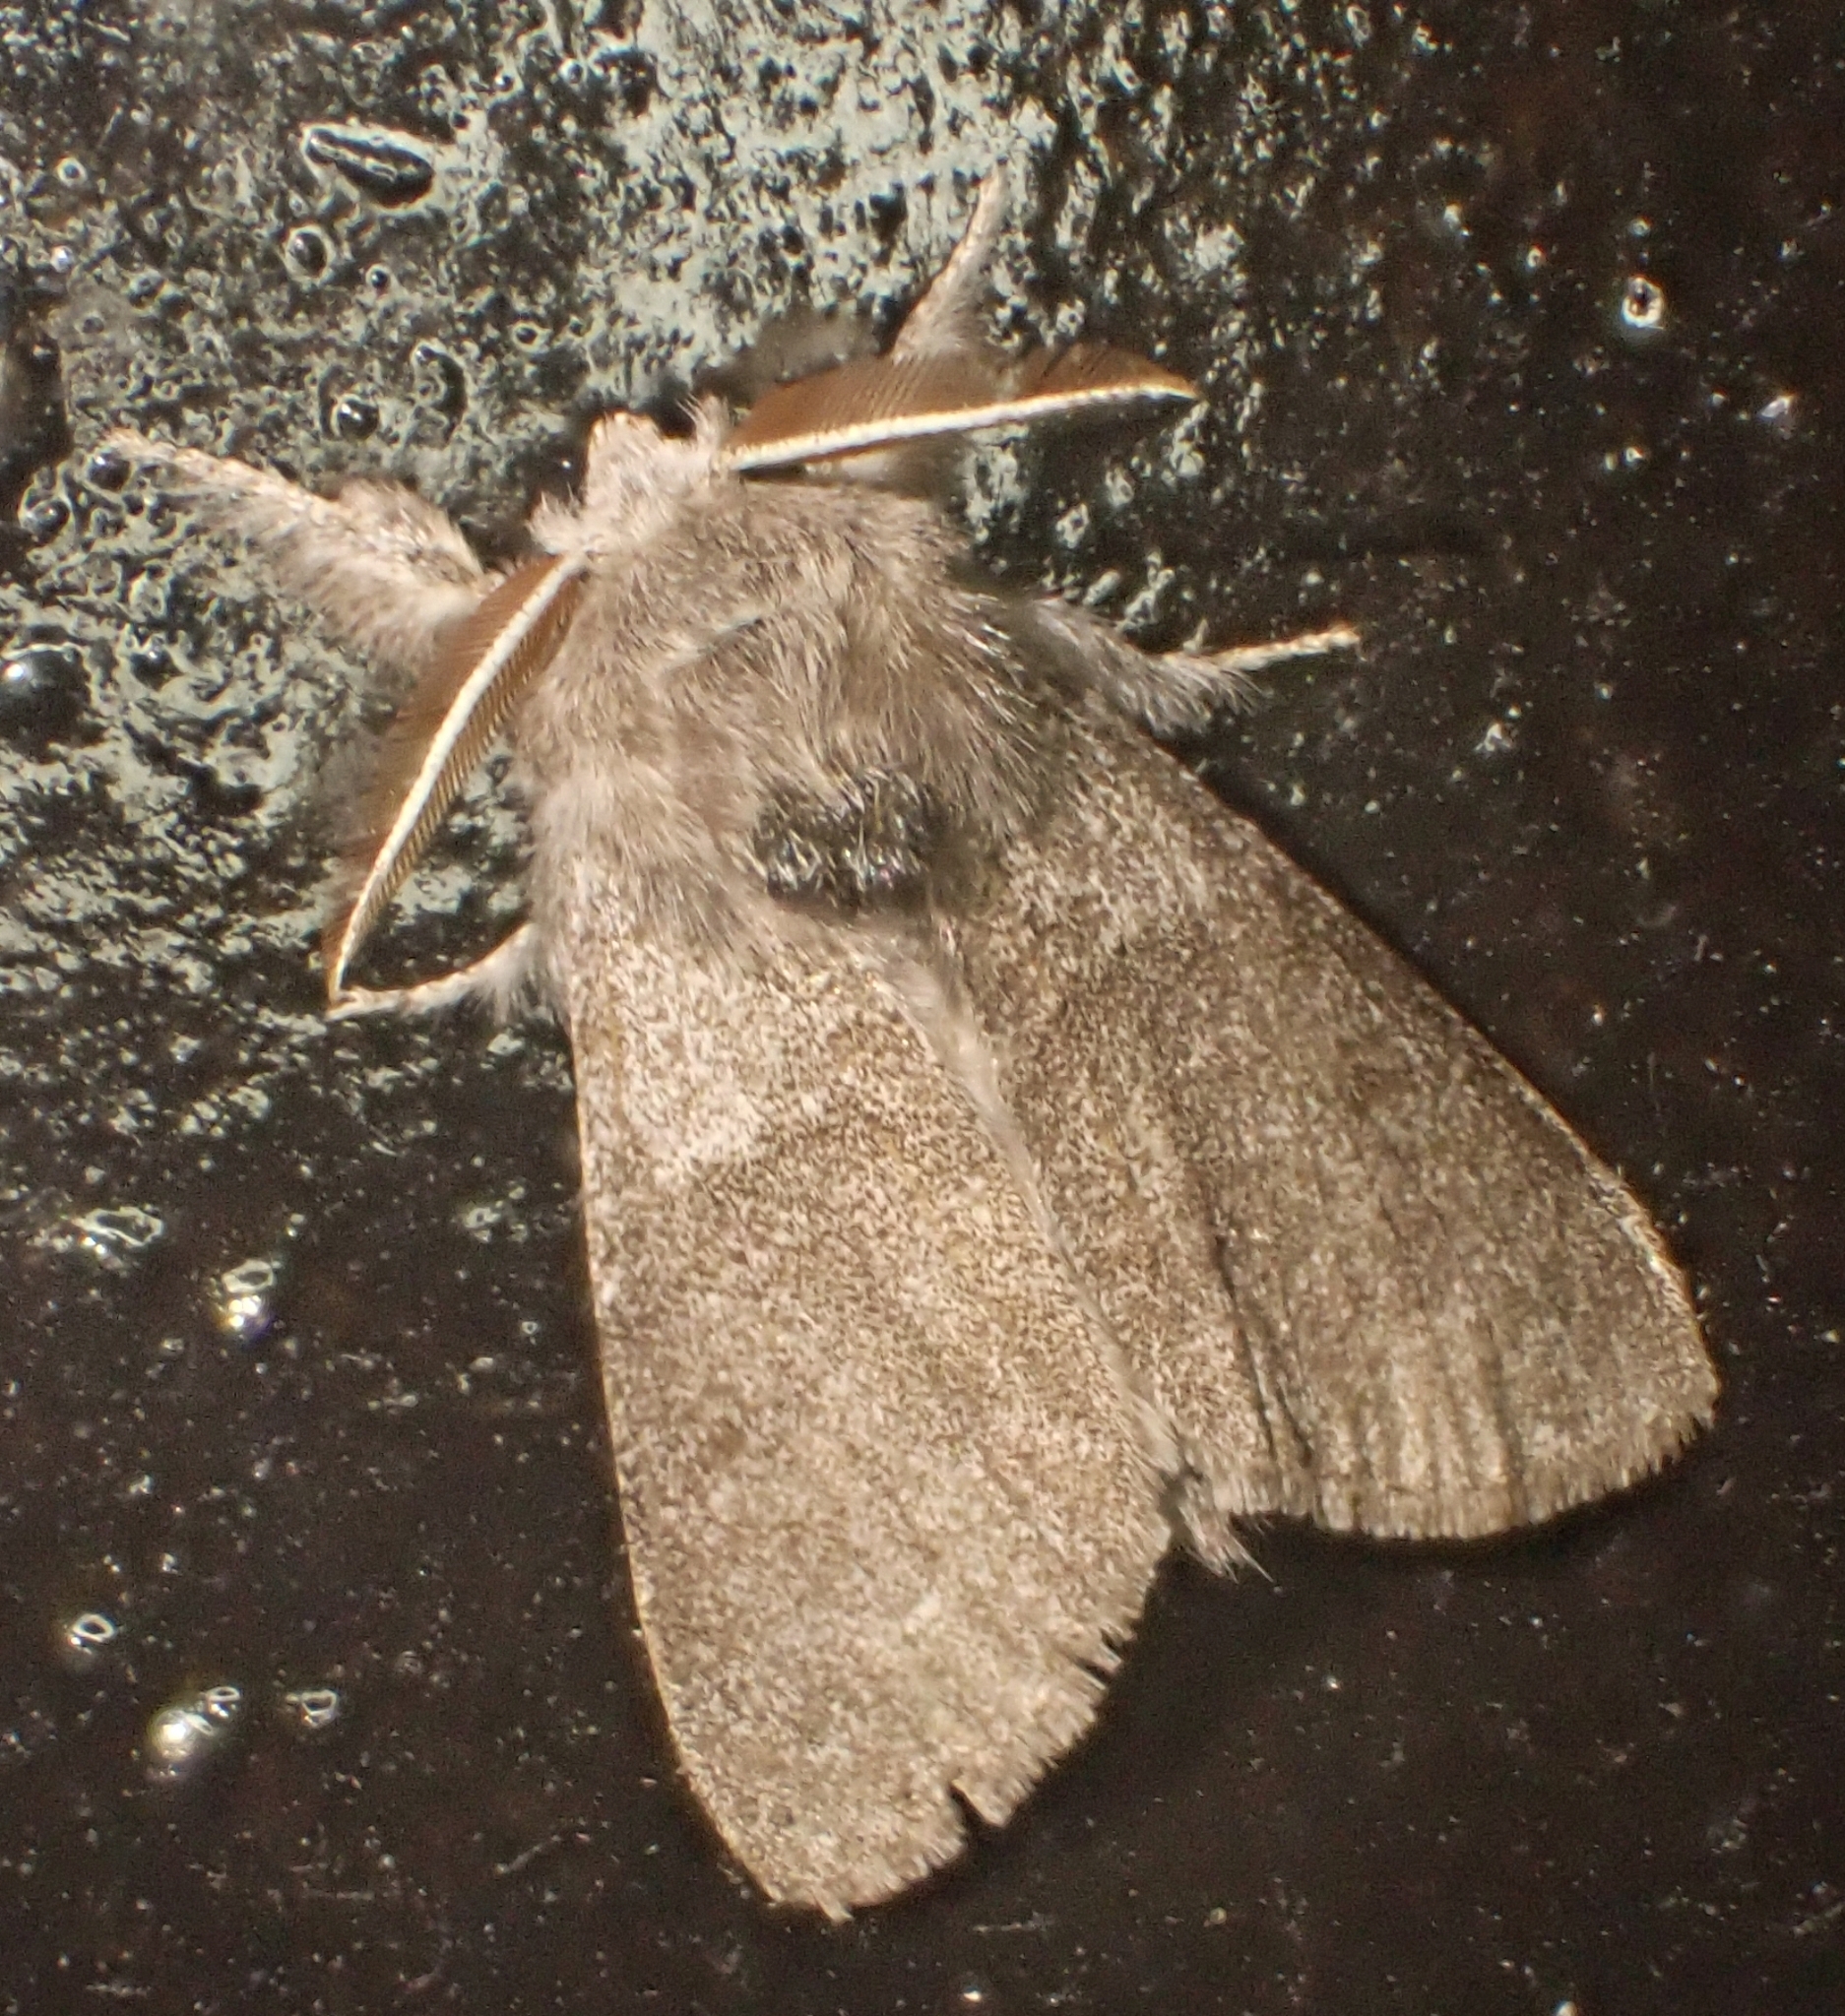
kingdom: Animalia
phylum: Arthropoda
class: Insecta
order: Lepidoptera
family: Erebidae
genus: Calliteara
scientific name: Calliteara pudibunda
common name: Pale tussock
